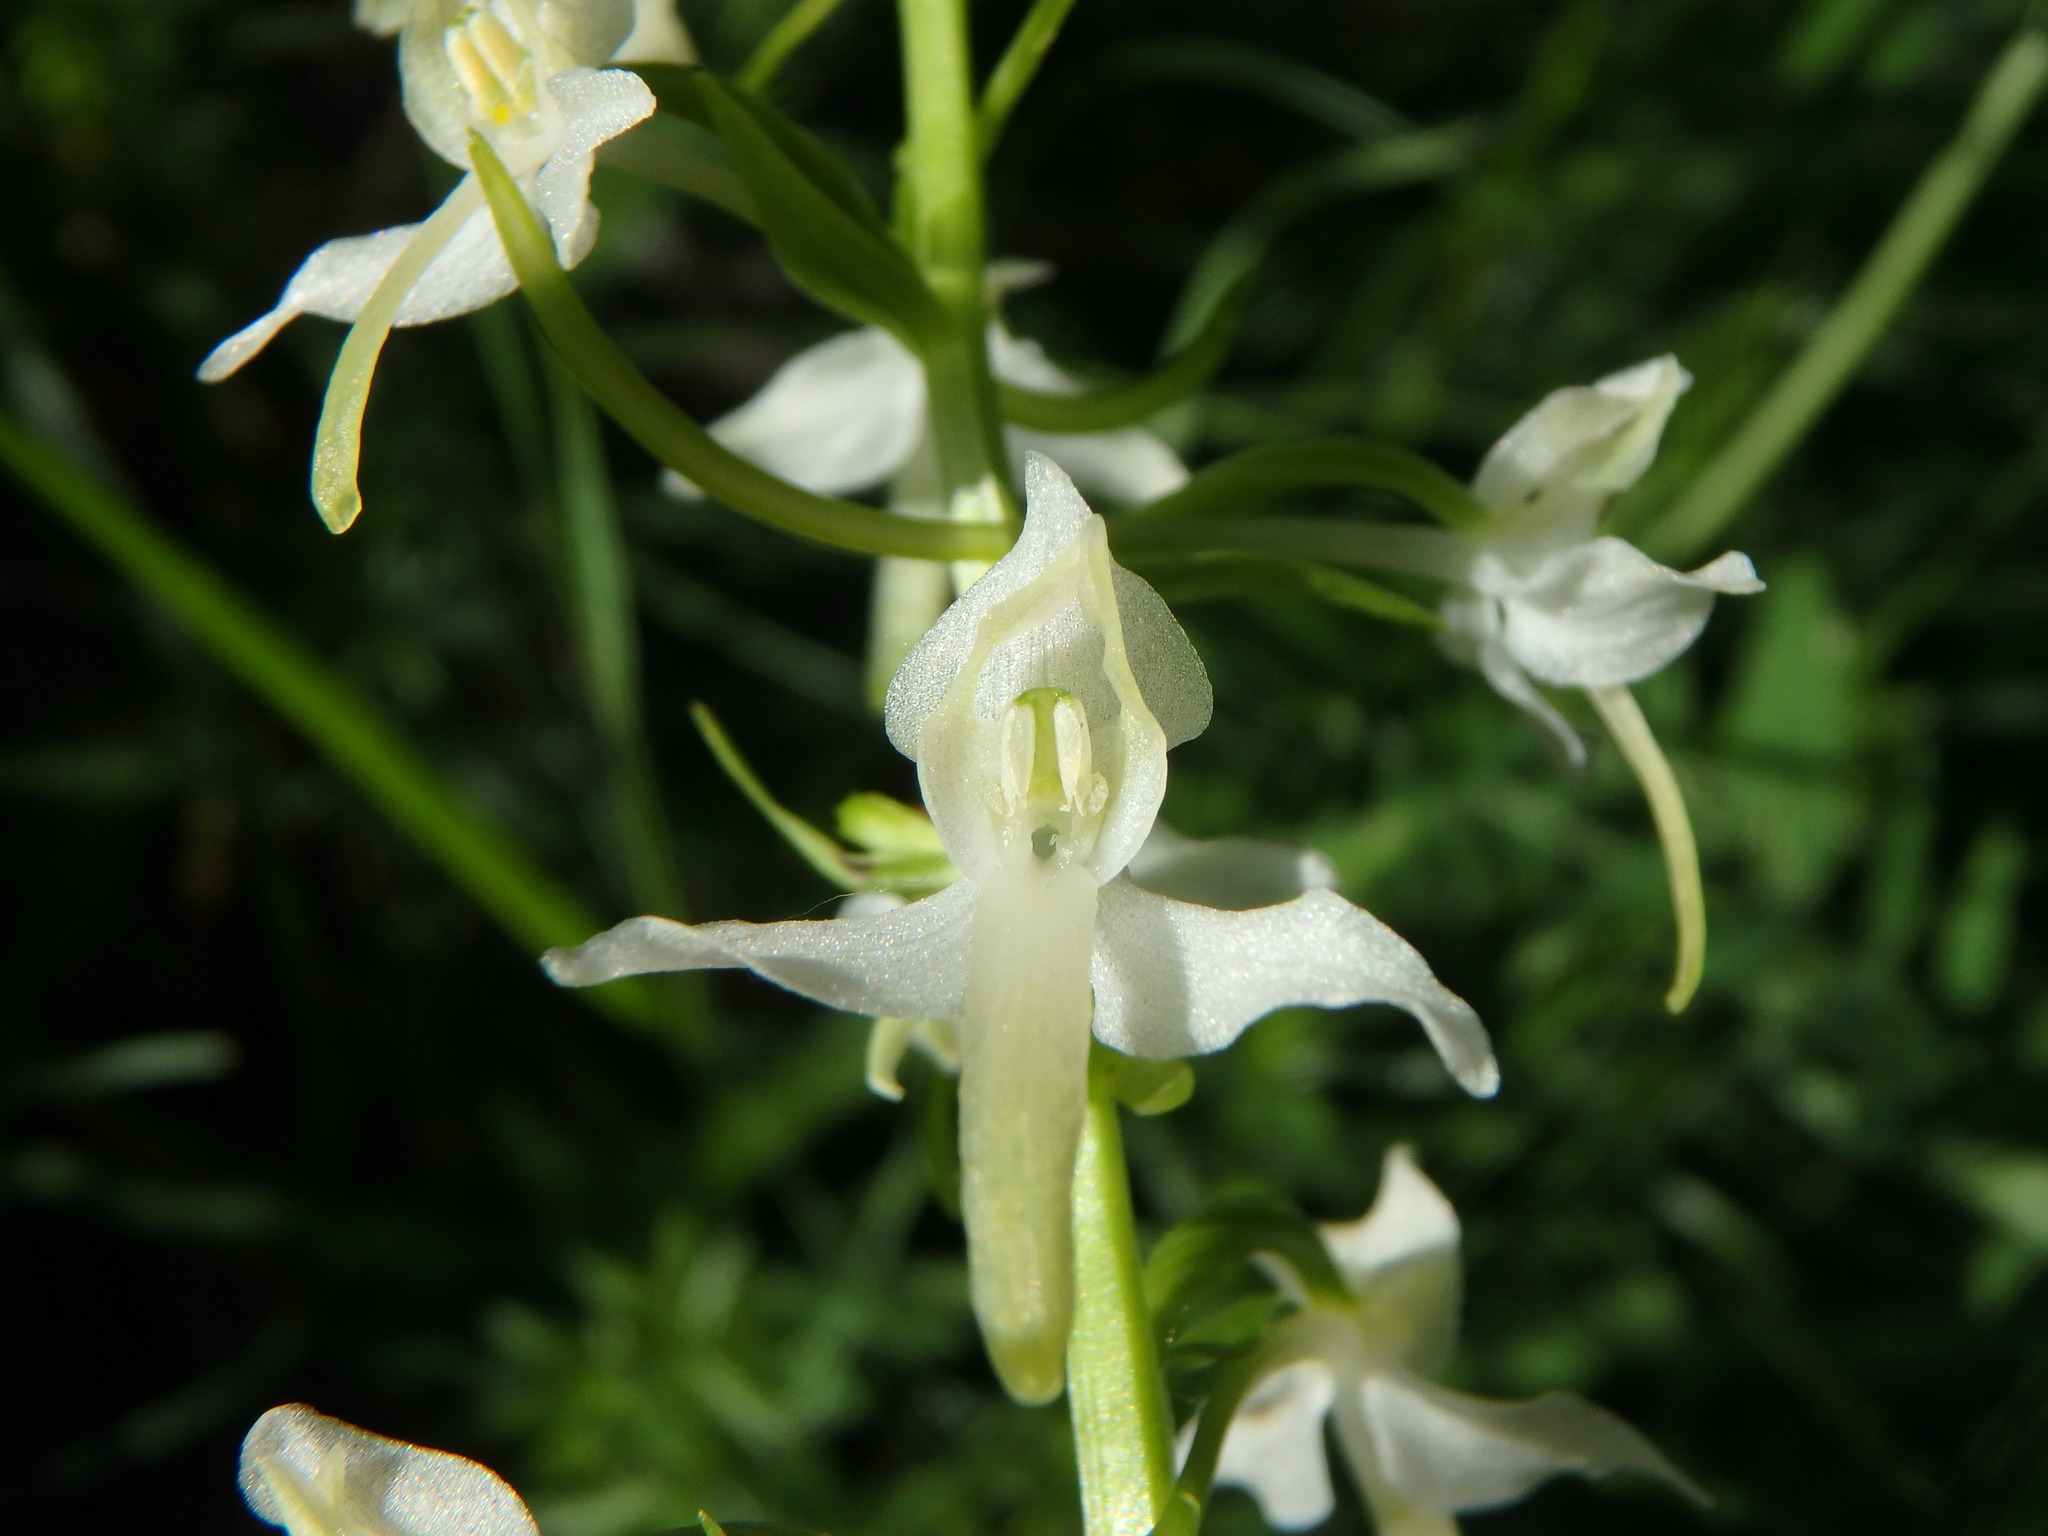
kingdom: Plantae
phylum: Tracheophyta
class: Liliopsida
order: Asparagales
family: Orchidaceae
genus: Platanthera
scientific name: Platanthera bifolia
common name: Lesser butterfly-orchid
